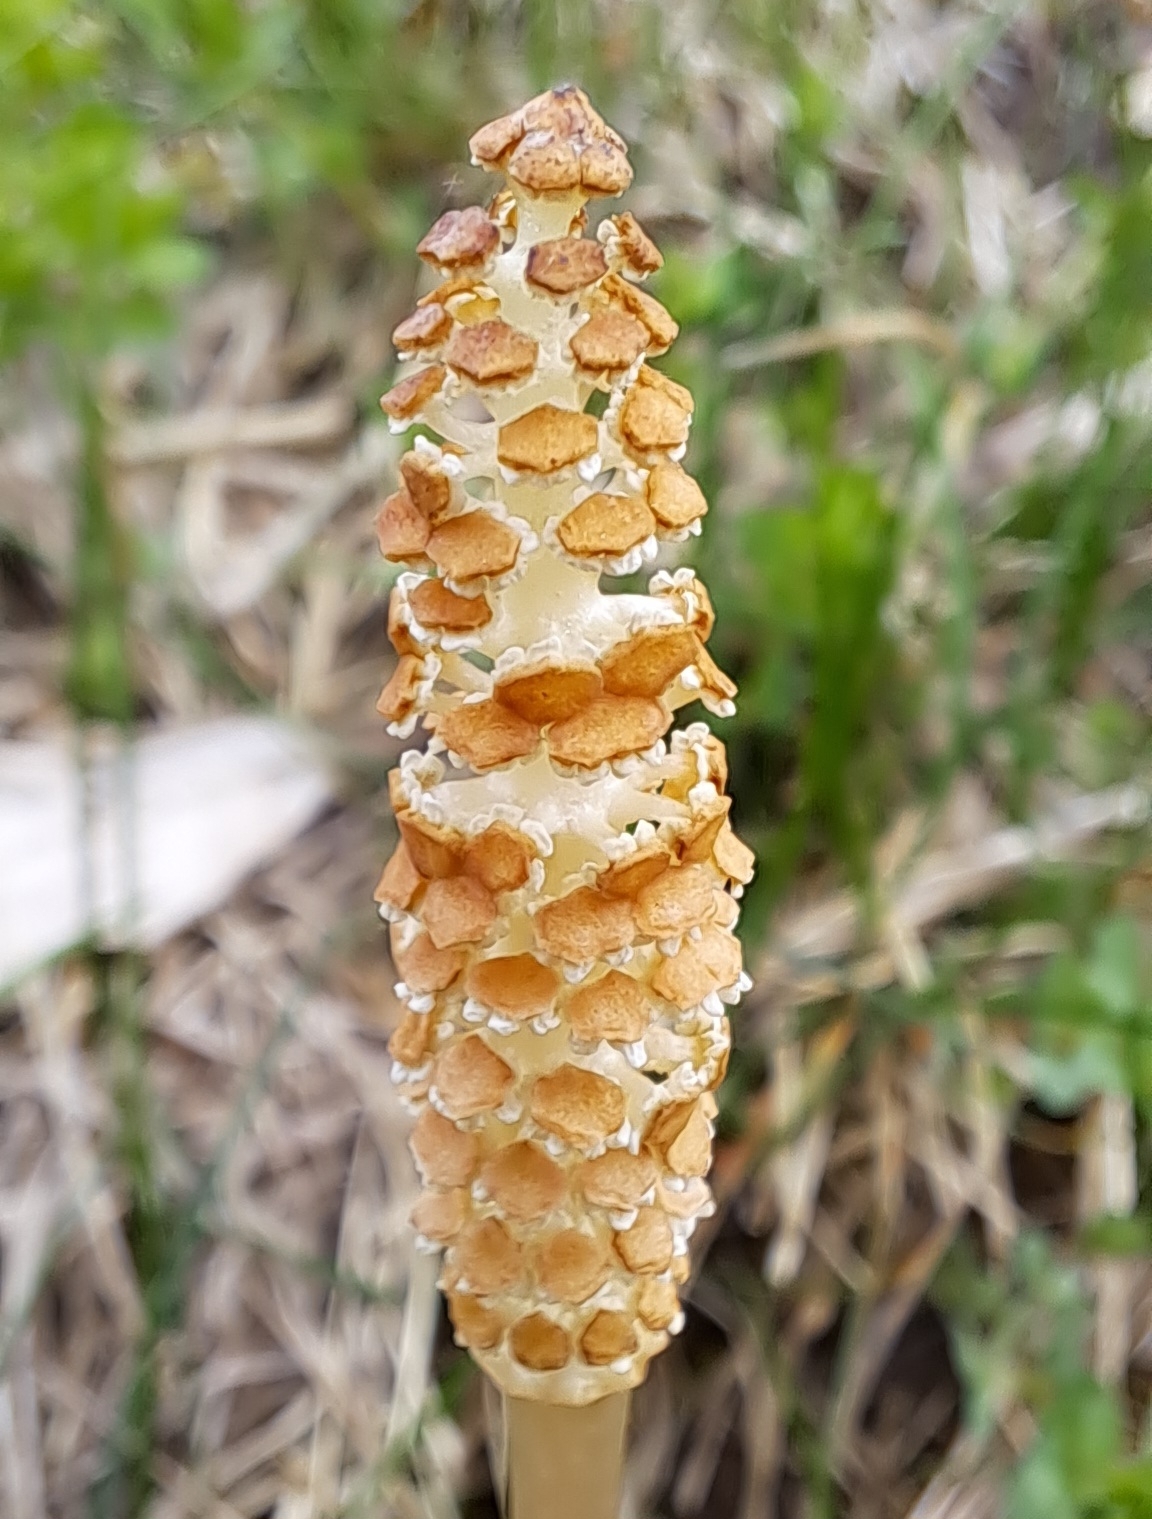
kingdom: Plantae
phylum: Tracheophyta
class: Polypodiopsida
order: Equisetales
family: Equisetaceae
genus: Equisetum
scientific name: Equisetum arvense
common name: Field horsetail
